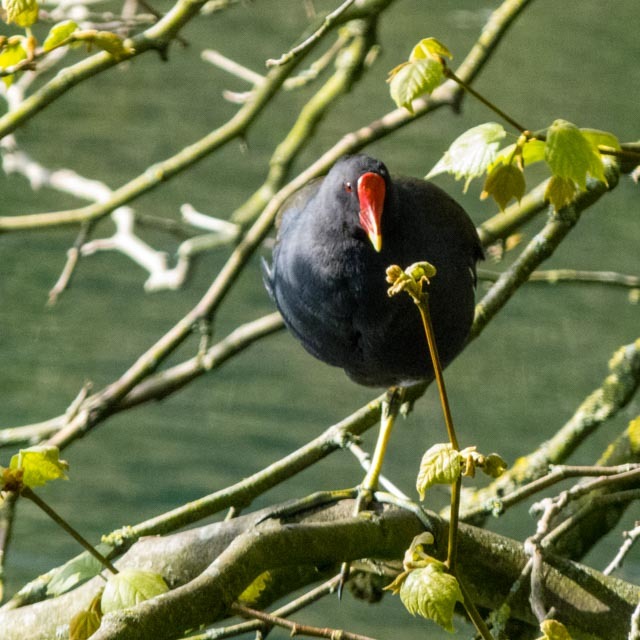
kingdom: Animalia
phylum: Chordata
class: Aves
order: Gruiformes
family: Rallidae
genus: Gallinula
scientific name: Gallinula chloropus
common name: Common moorhen
